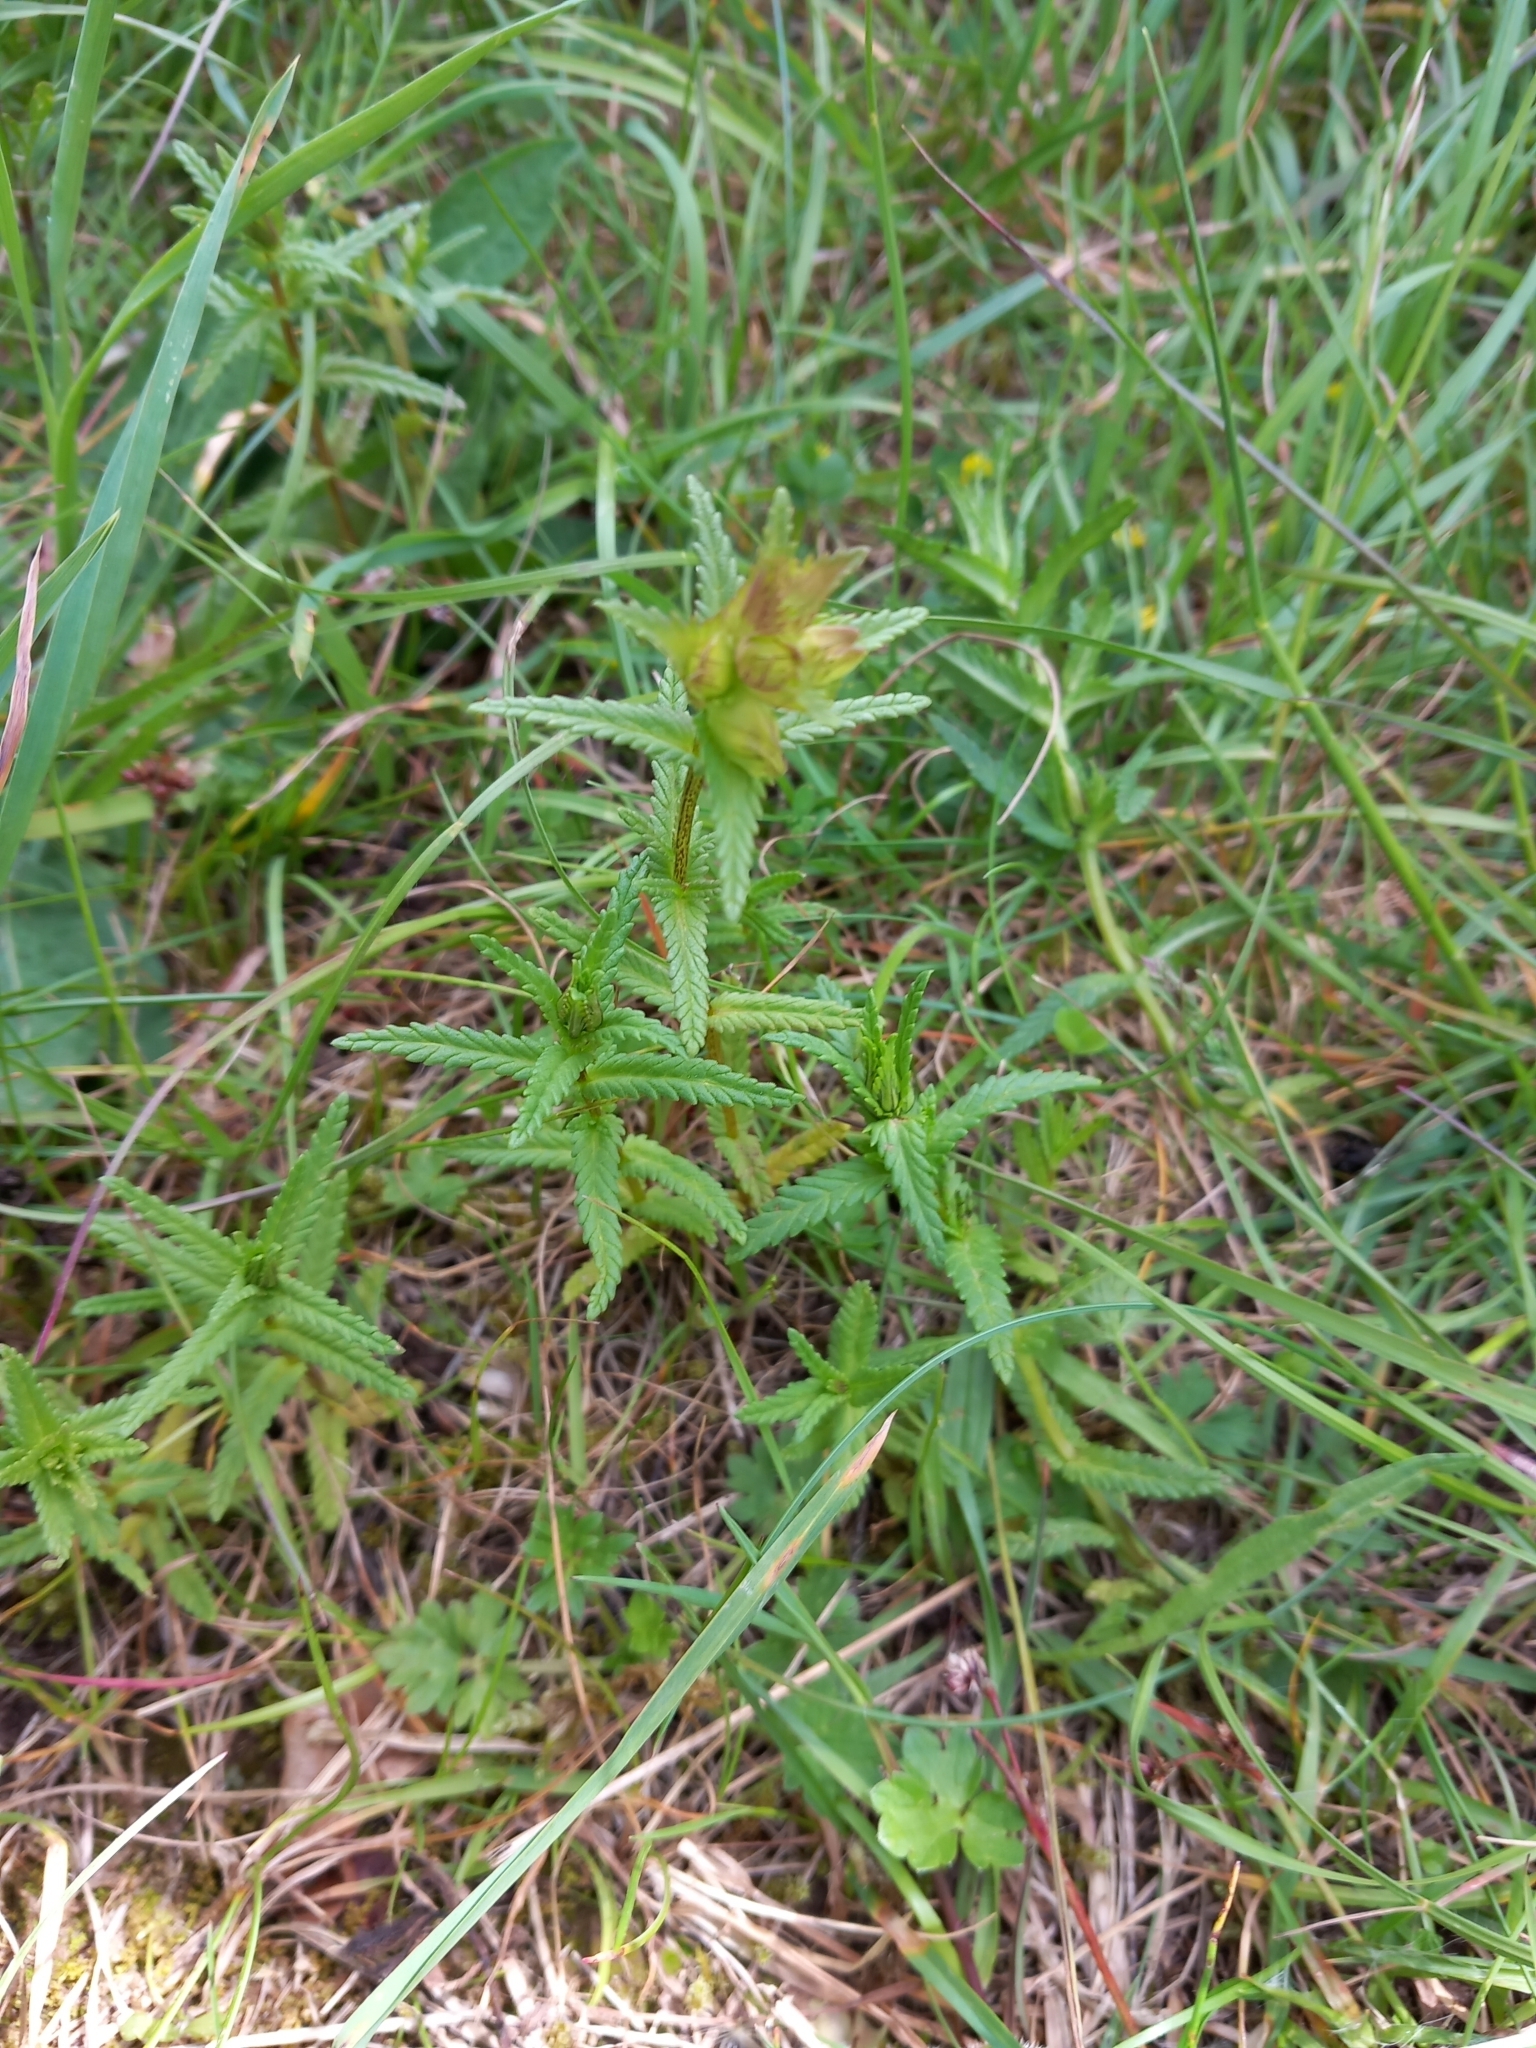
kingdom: Plantae
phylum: Tracheophyta
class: Magnoliopsida
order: Lamiales
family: Orobanchaceae
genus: Rhinanthus
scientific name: Rhinanthus minor
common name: Yellow-rattle
